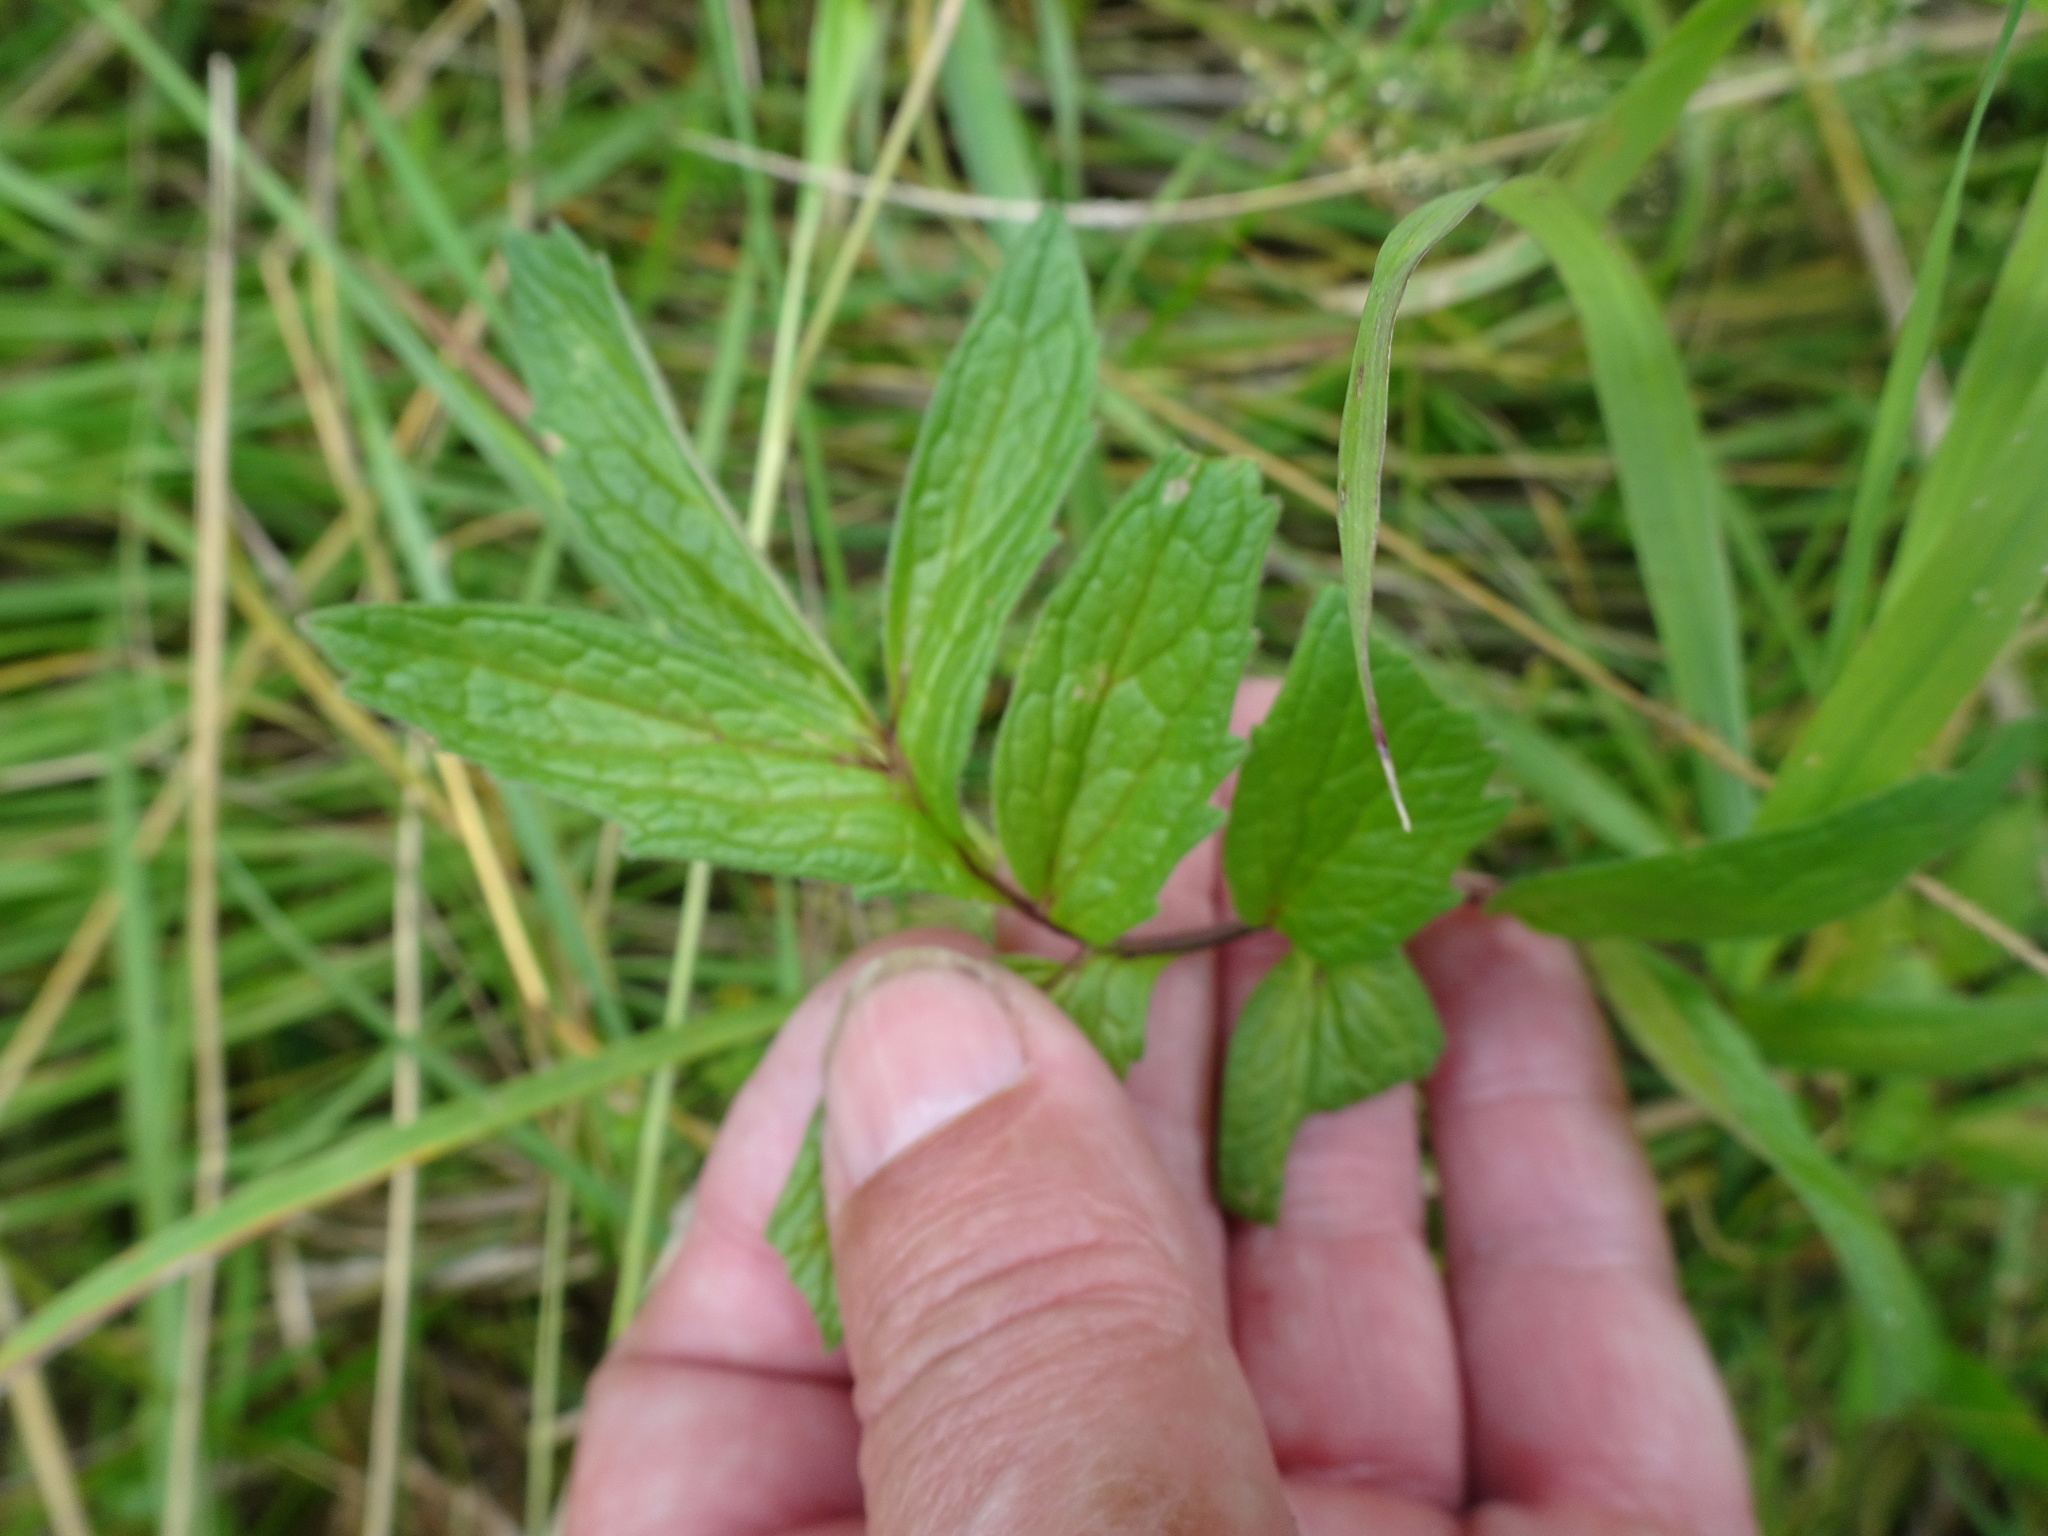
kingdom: Plantae
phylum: Tracheophyta
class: Magnoliopsida
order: Dipsacales
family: Caprifoliaceae
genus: Valeriana
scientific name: Valeriana officinalis
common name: Common valerian
